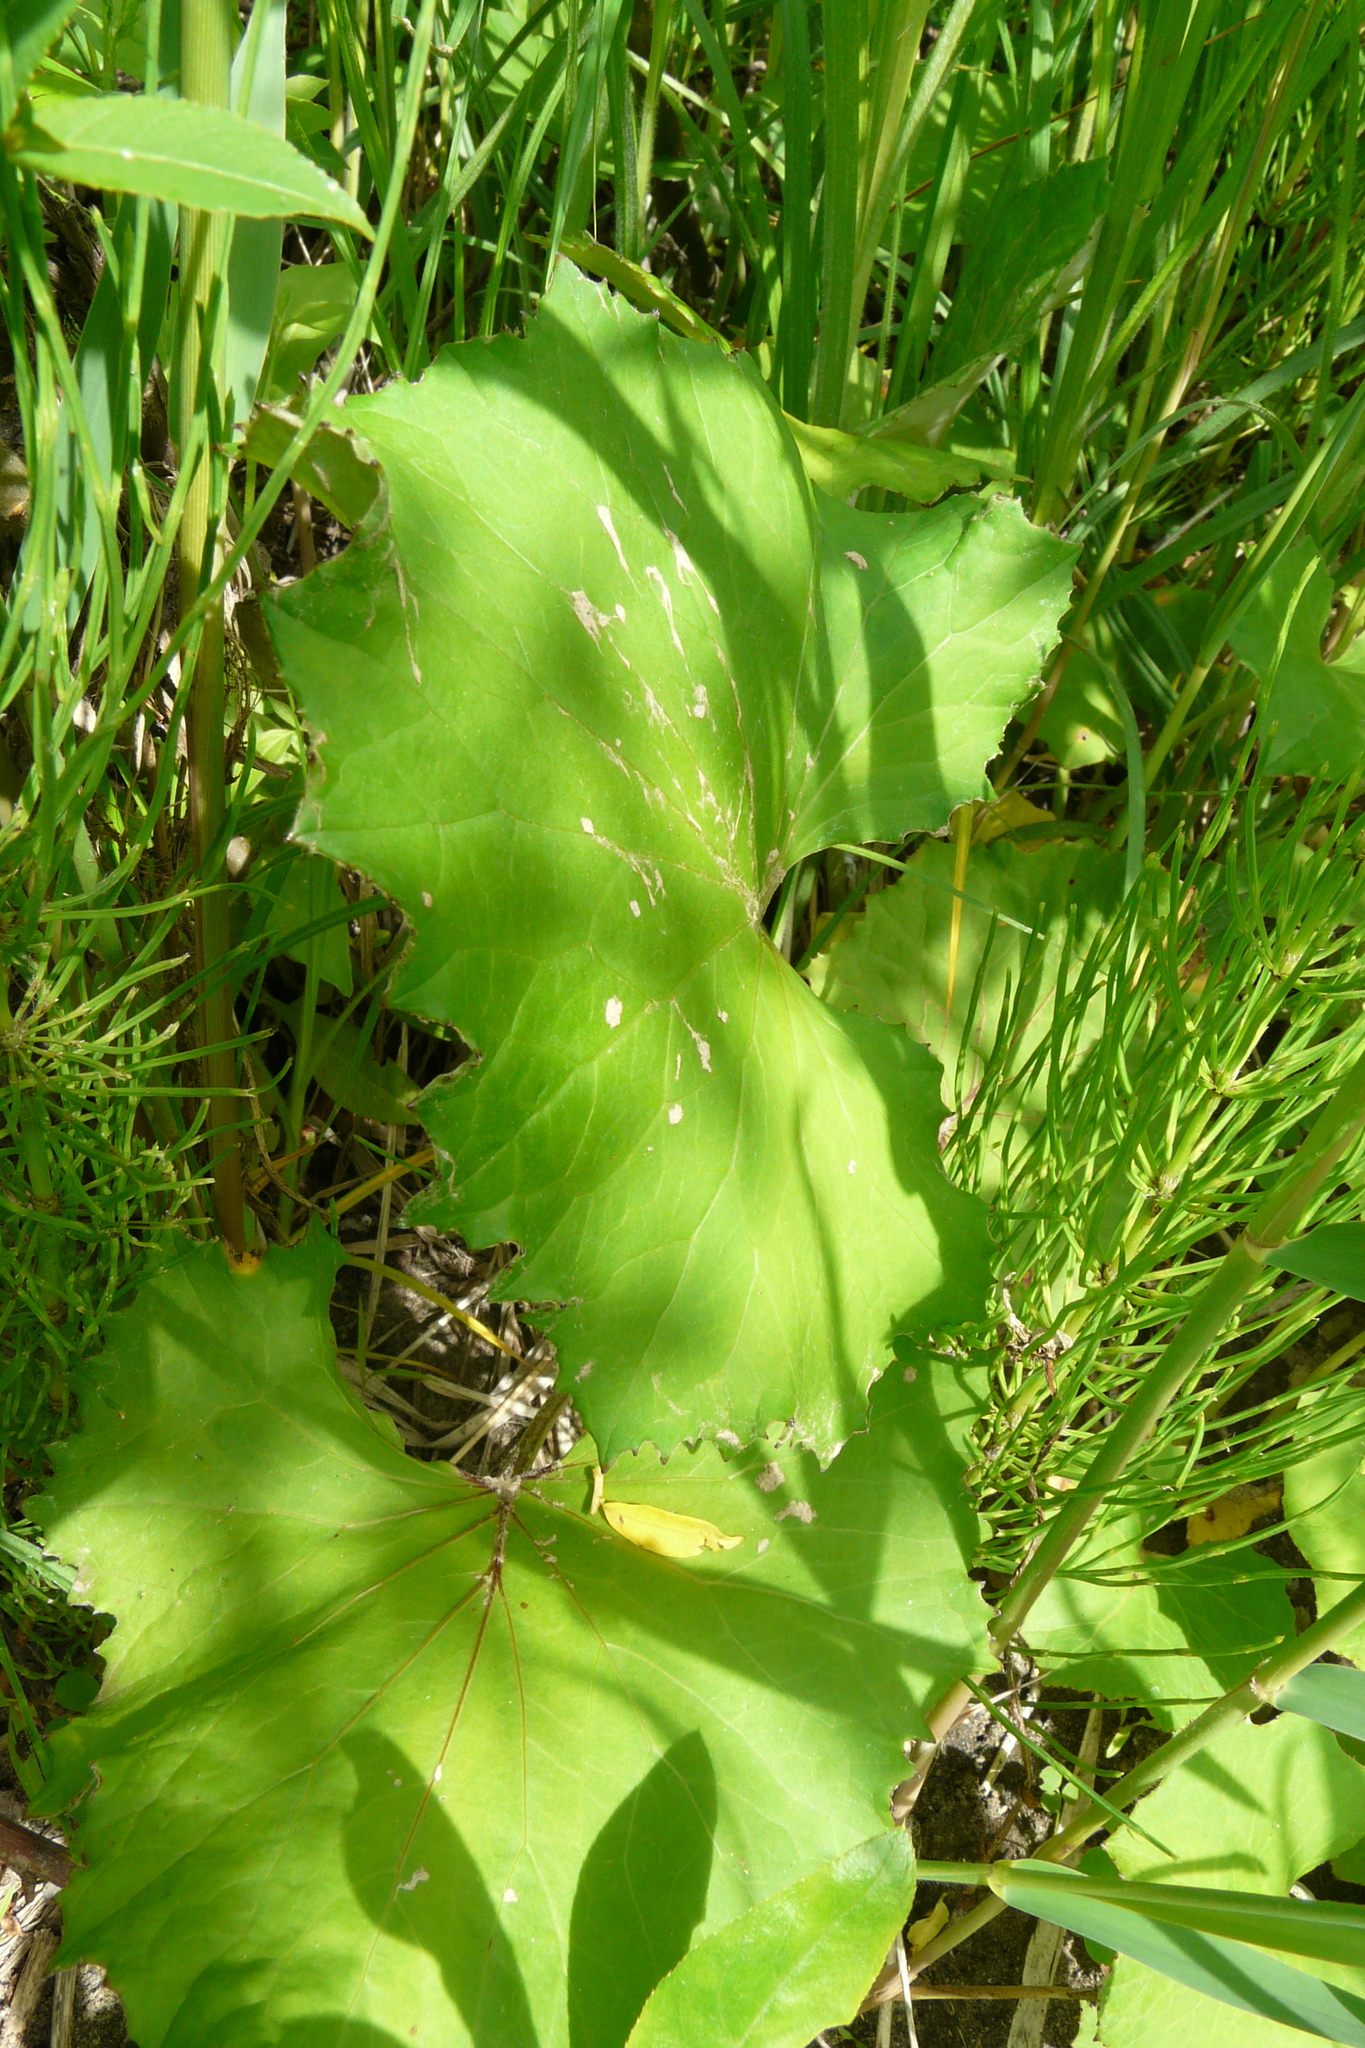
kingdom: Plantae
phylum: Tracheophyta
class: Magnoliopsida
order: Asterales
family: Asteraceae
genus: Tussilago
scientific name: Tussilago farfara
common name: Coltsfoot
